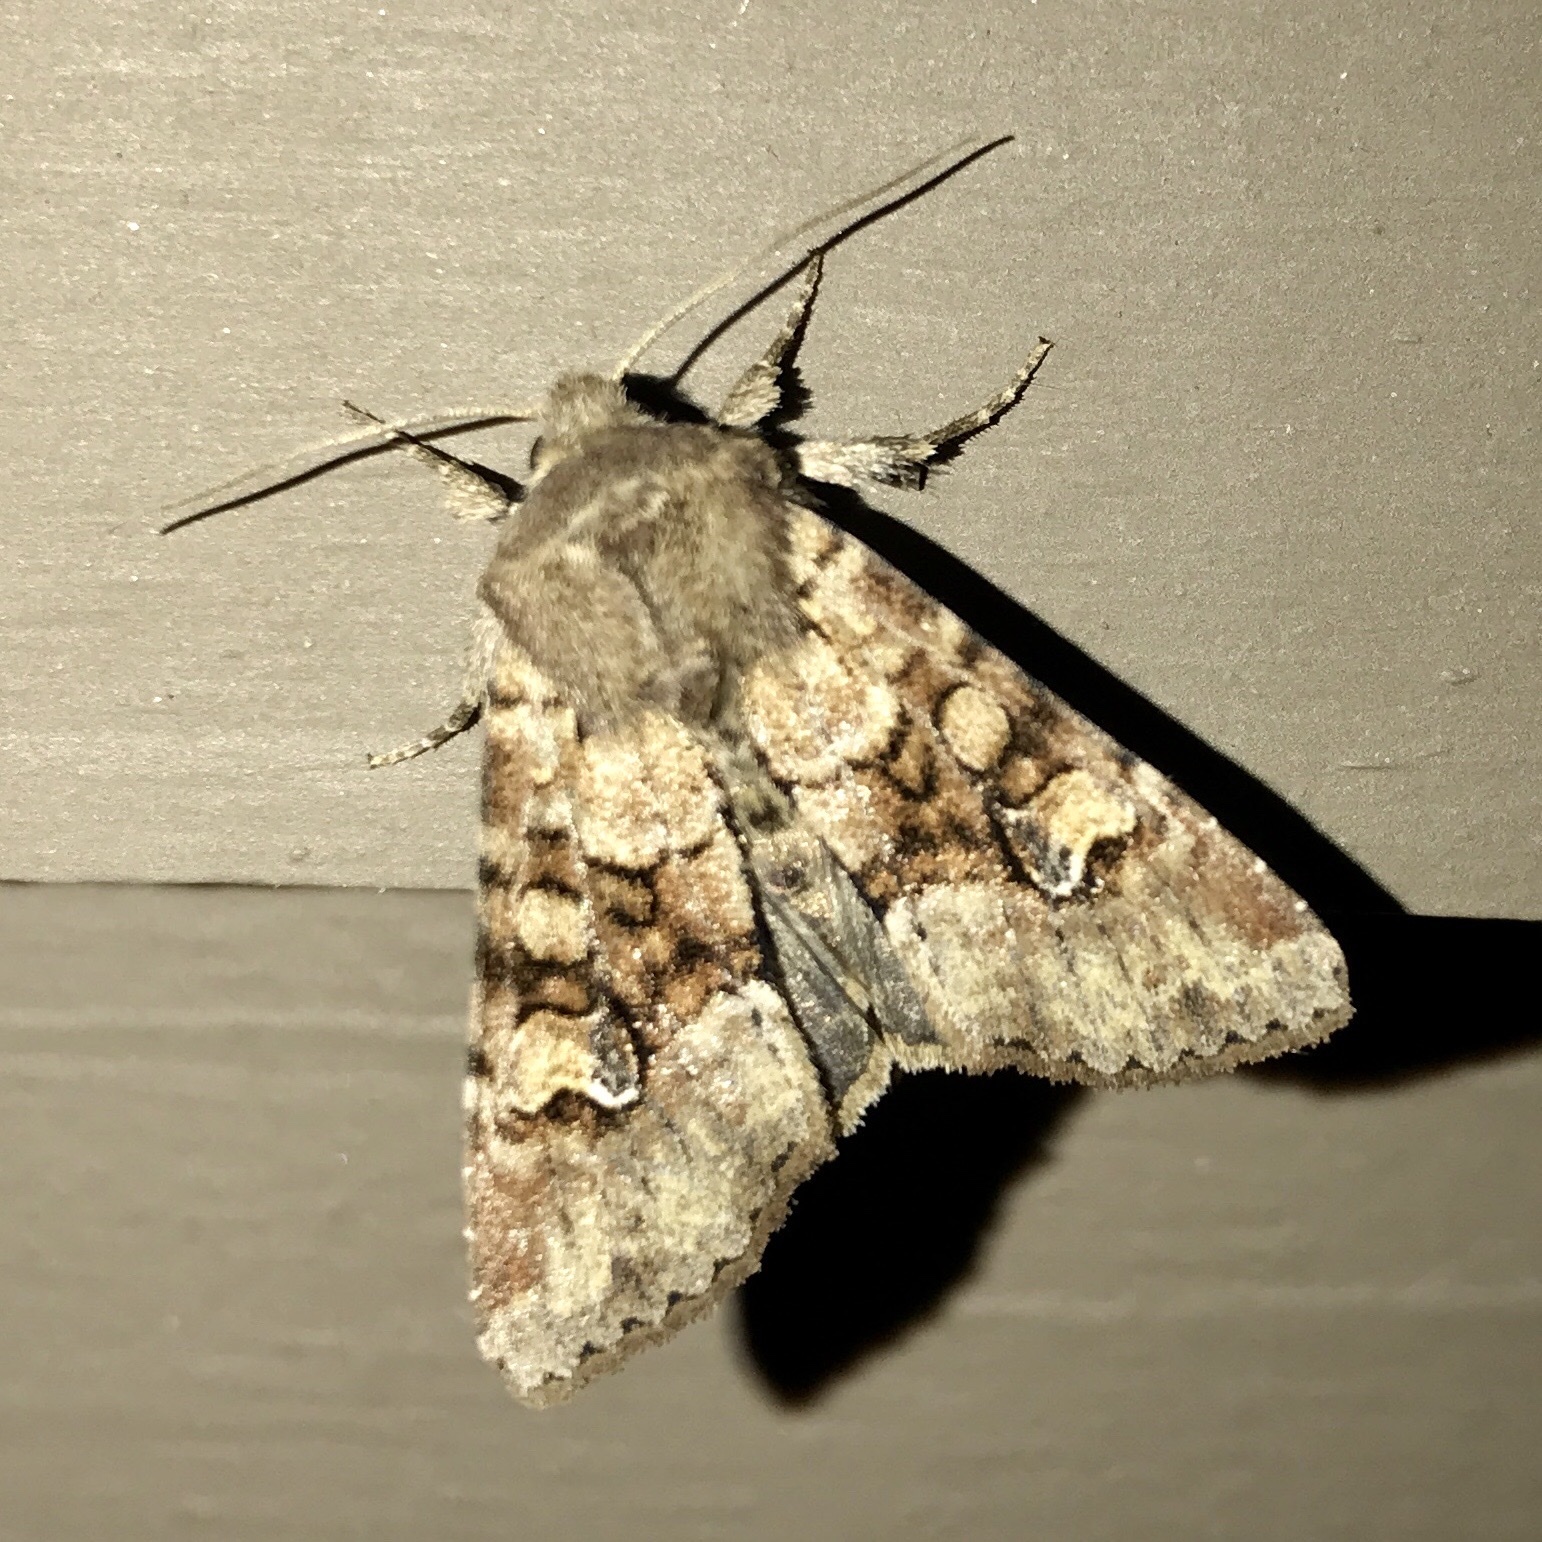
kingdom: Animalia
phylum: Arthropoda
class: Insecta
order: Lepidoptera
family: Noctuidae
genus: Apamea
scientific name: Apamea sordens
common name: Rustic shoulder-knot
